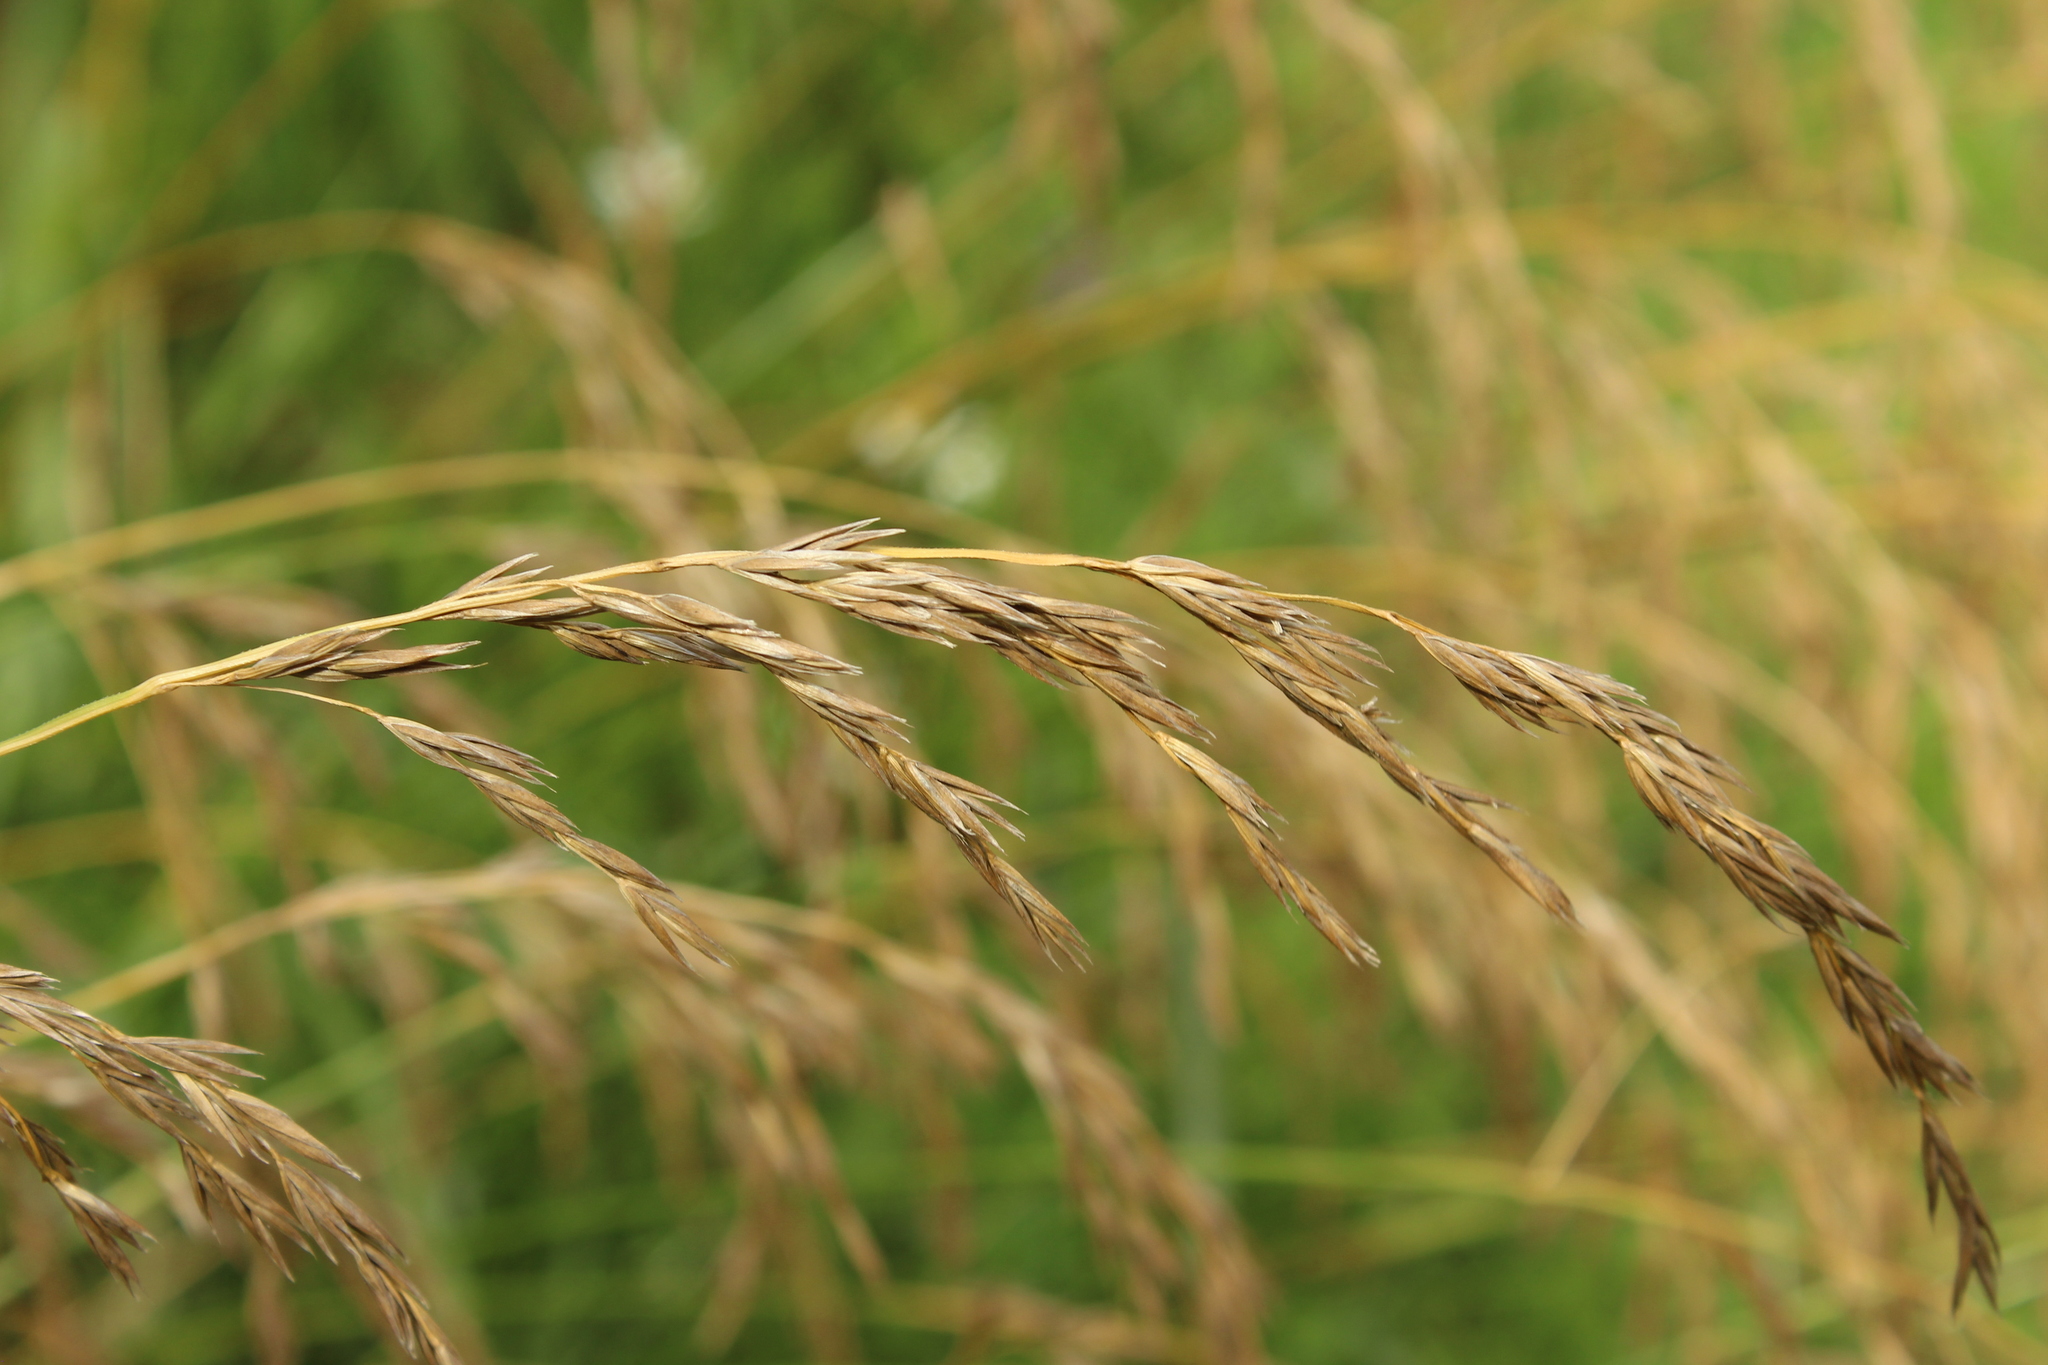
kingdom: Plantae
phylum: Tracheophyta
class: Liliopsida
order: Poales
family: Poaceae
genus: Lolium
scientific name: Lolium arundinaceum
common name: Reed fescue
